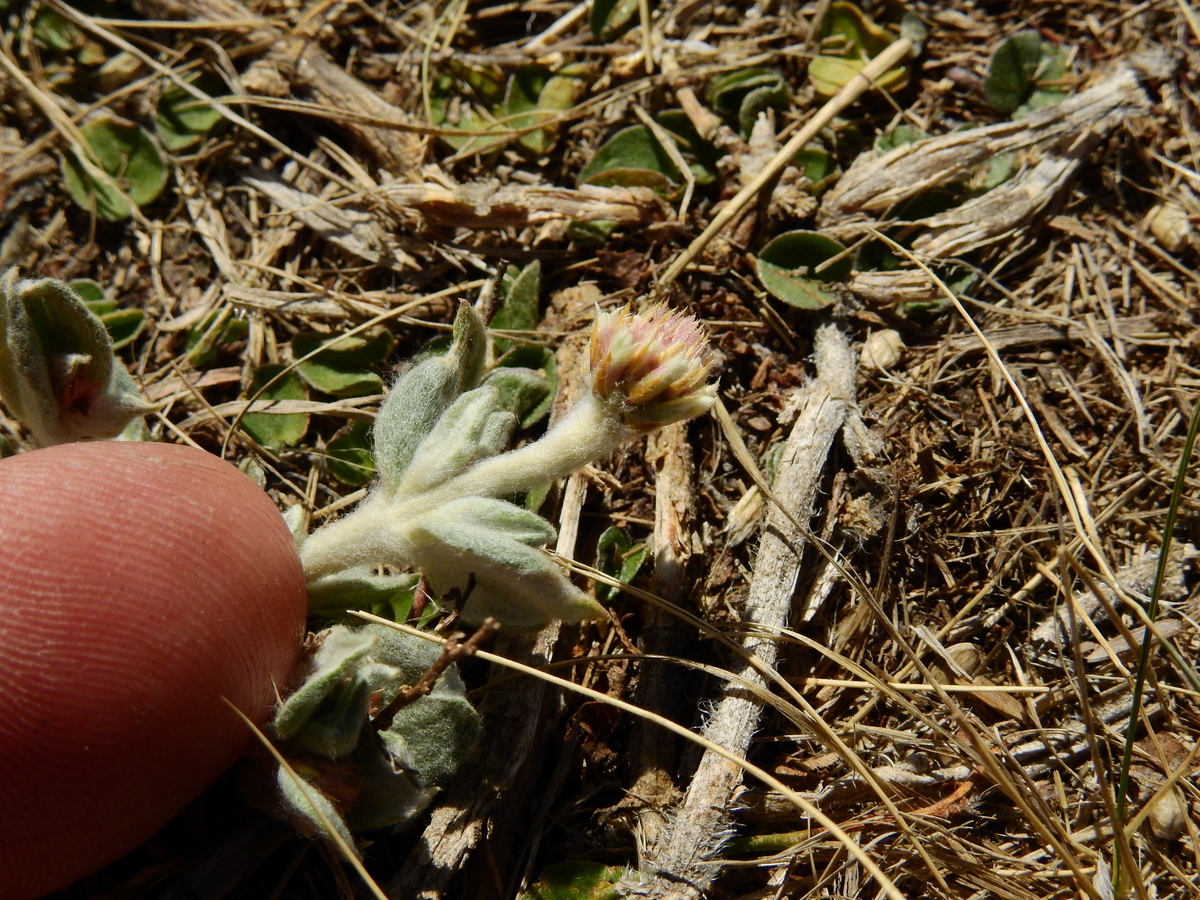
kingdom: Plantae
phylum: Tracheophyta
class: Magnoliopsida
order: Caryophyllales
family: Amaranthaceae
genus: Gomphrena
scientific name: Gomphrena pumila
